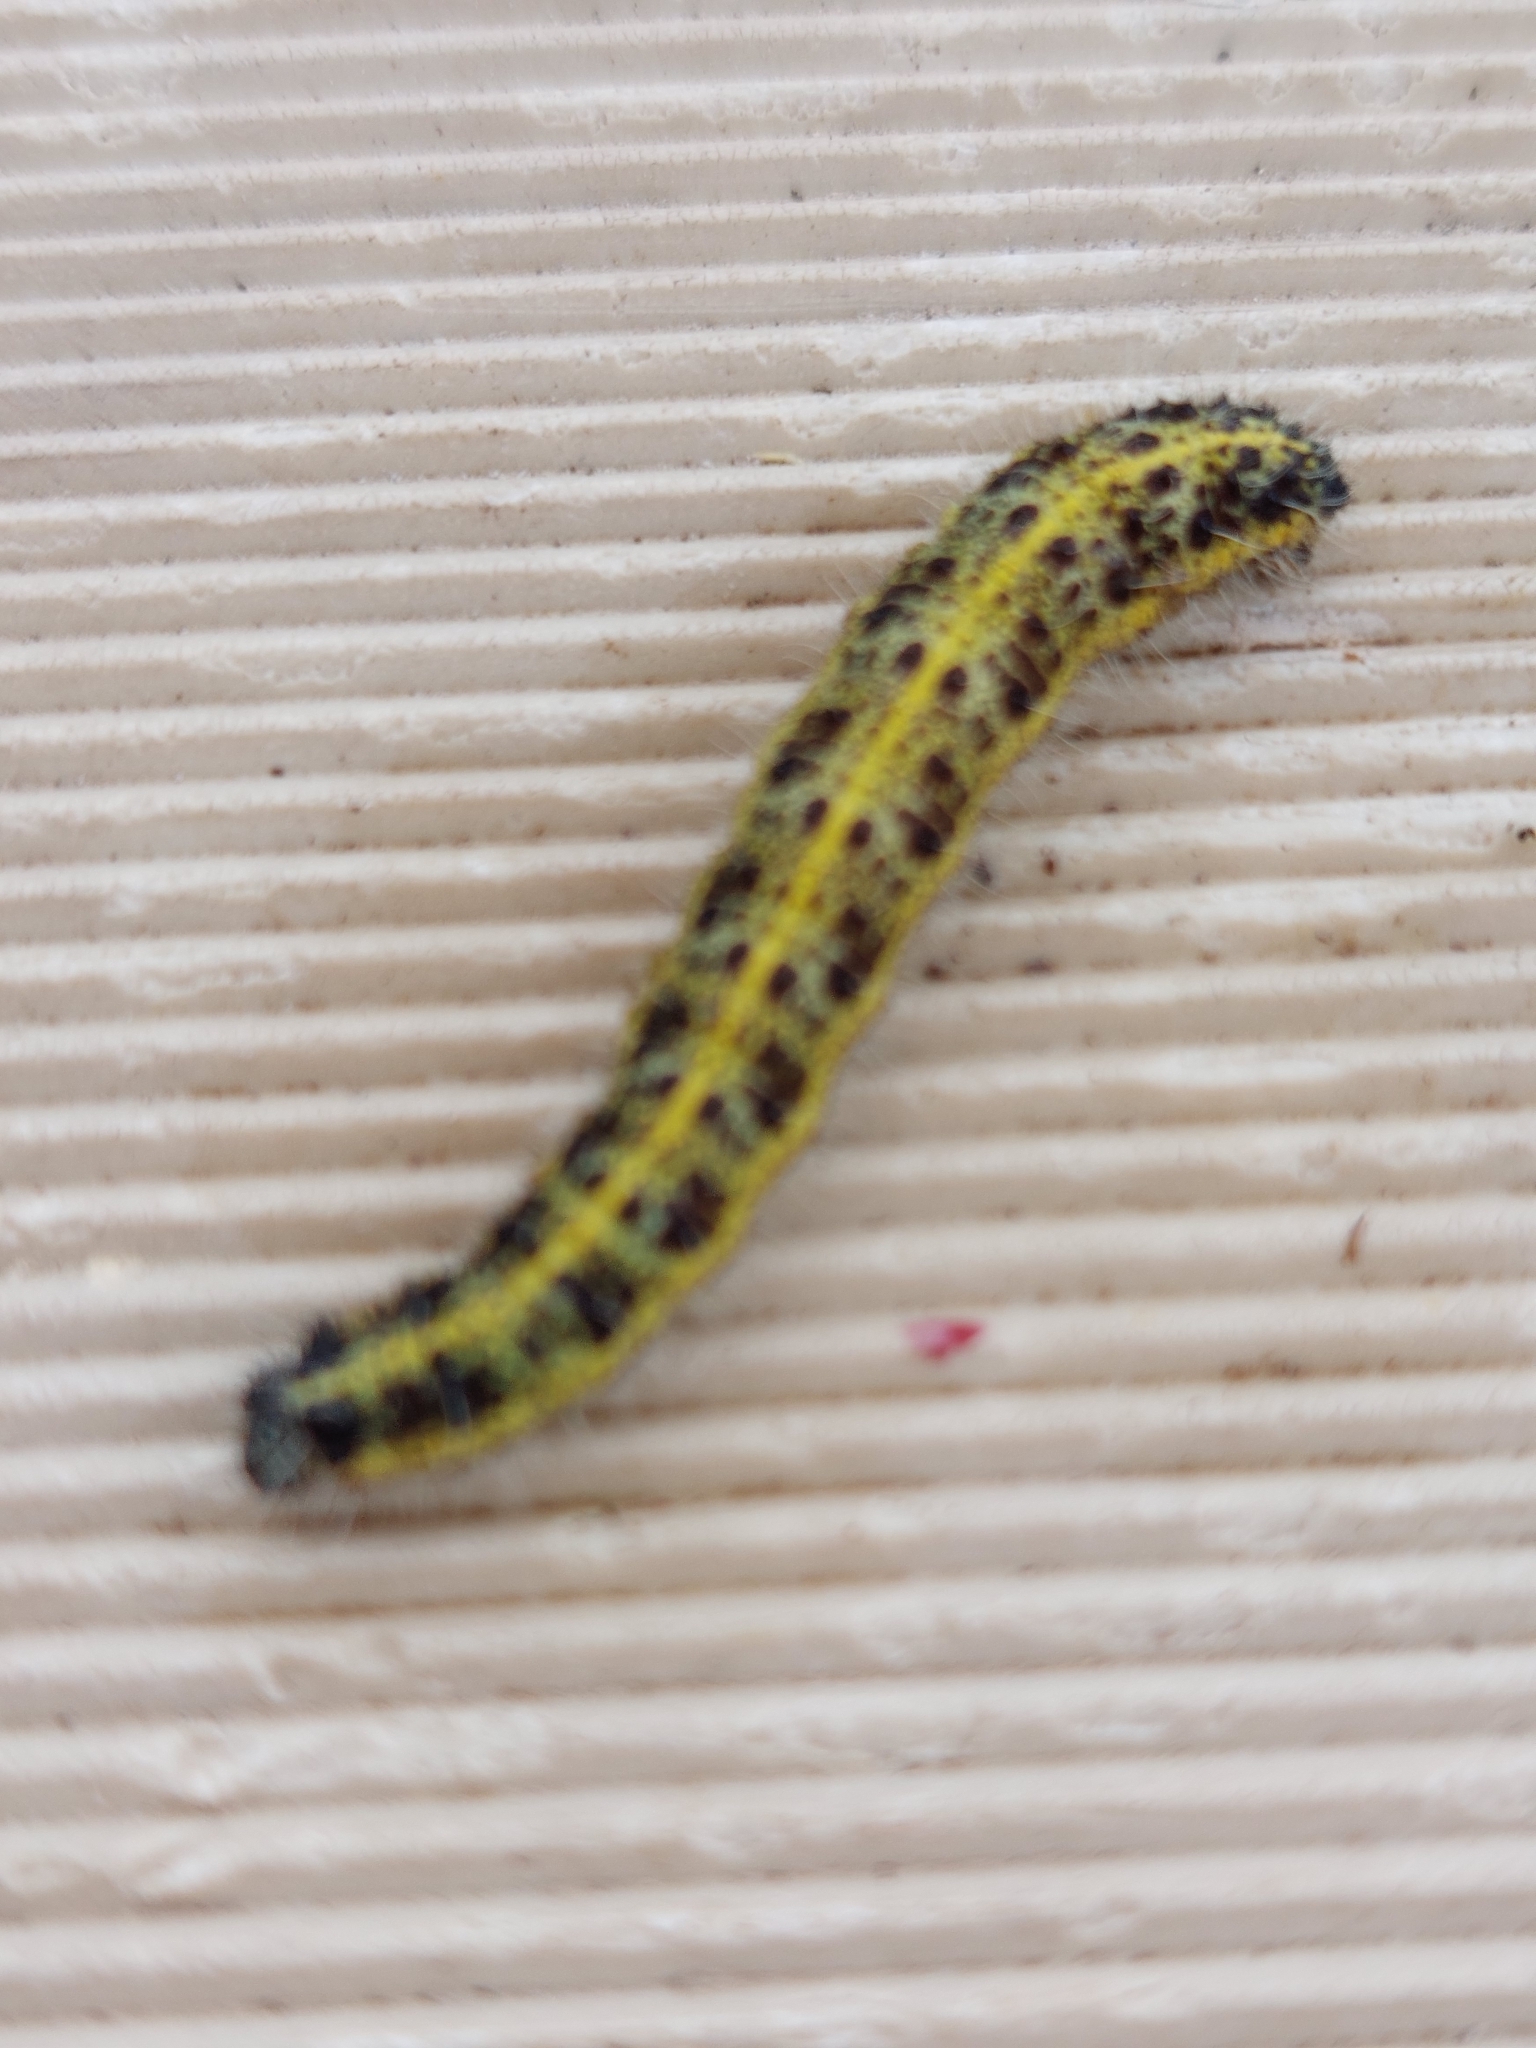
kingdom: Animalia
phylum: Arthropoda
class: Insecta
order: Lepidoptera
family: Pieridae
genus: Pieris
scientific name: Pieris brassicae
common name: Large white
